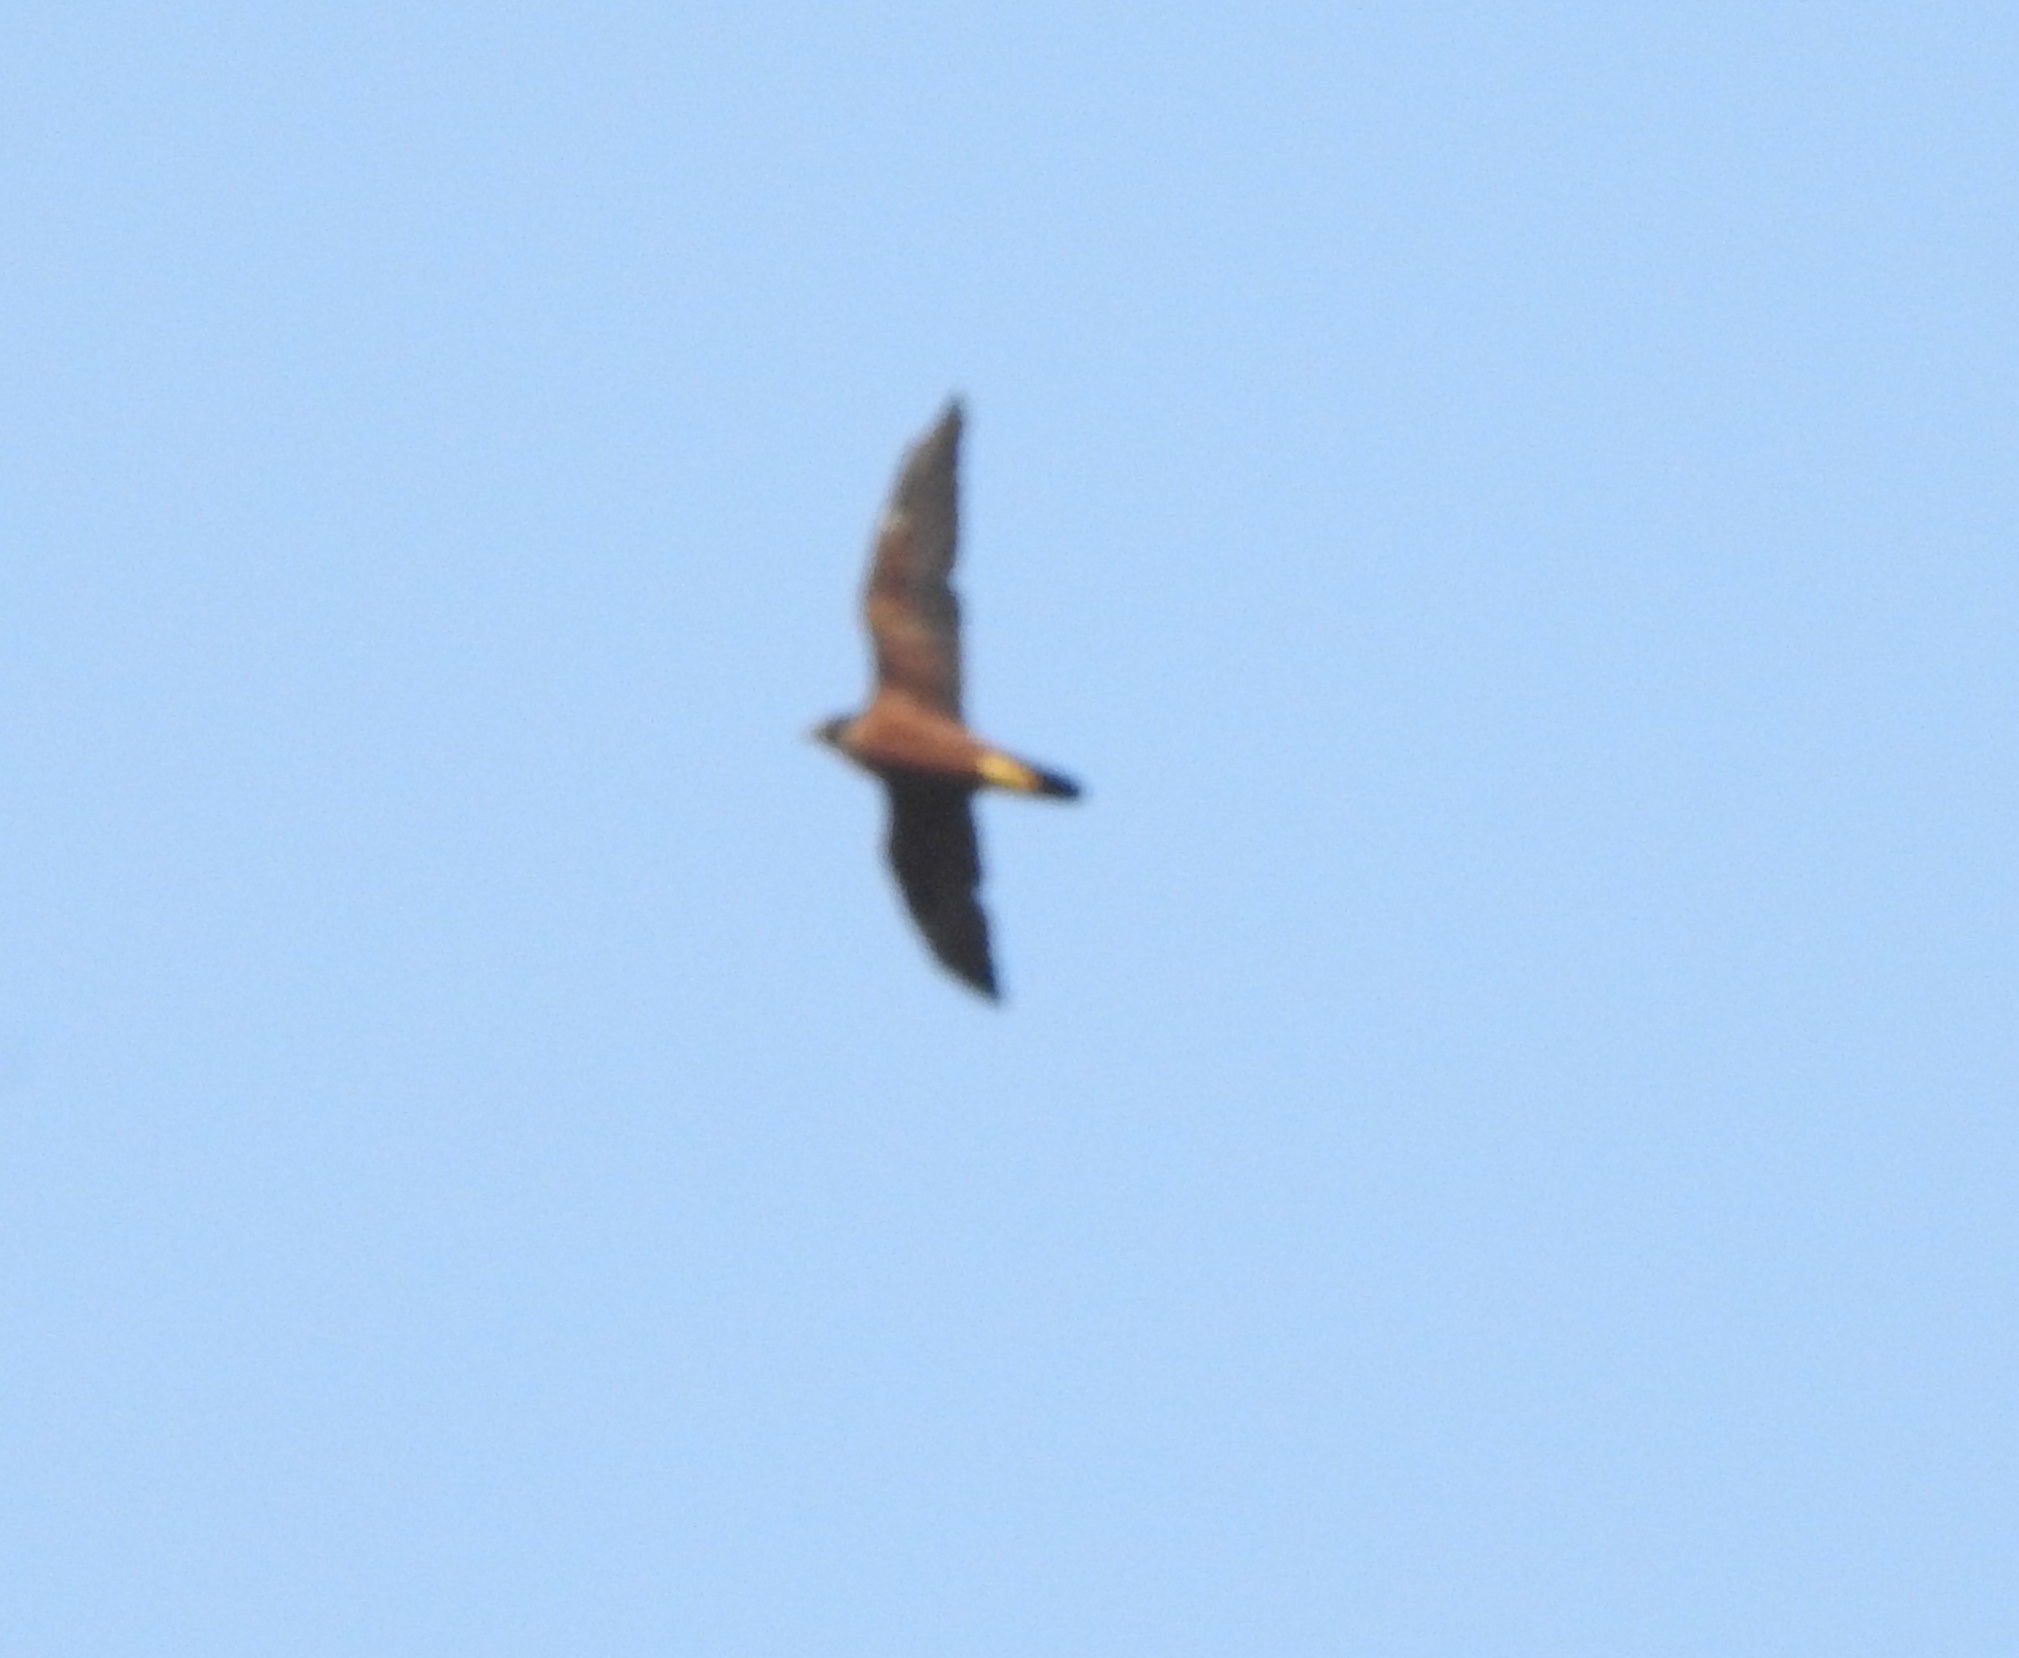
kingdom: Animalia
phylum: Chordata
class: Aves
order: Falconiformes
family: Falconidae
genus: Falco
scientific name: Falco peregrinus
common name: Peregrine falcon
